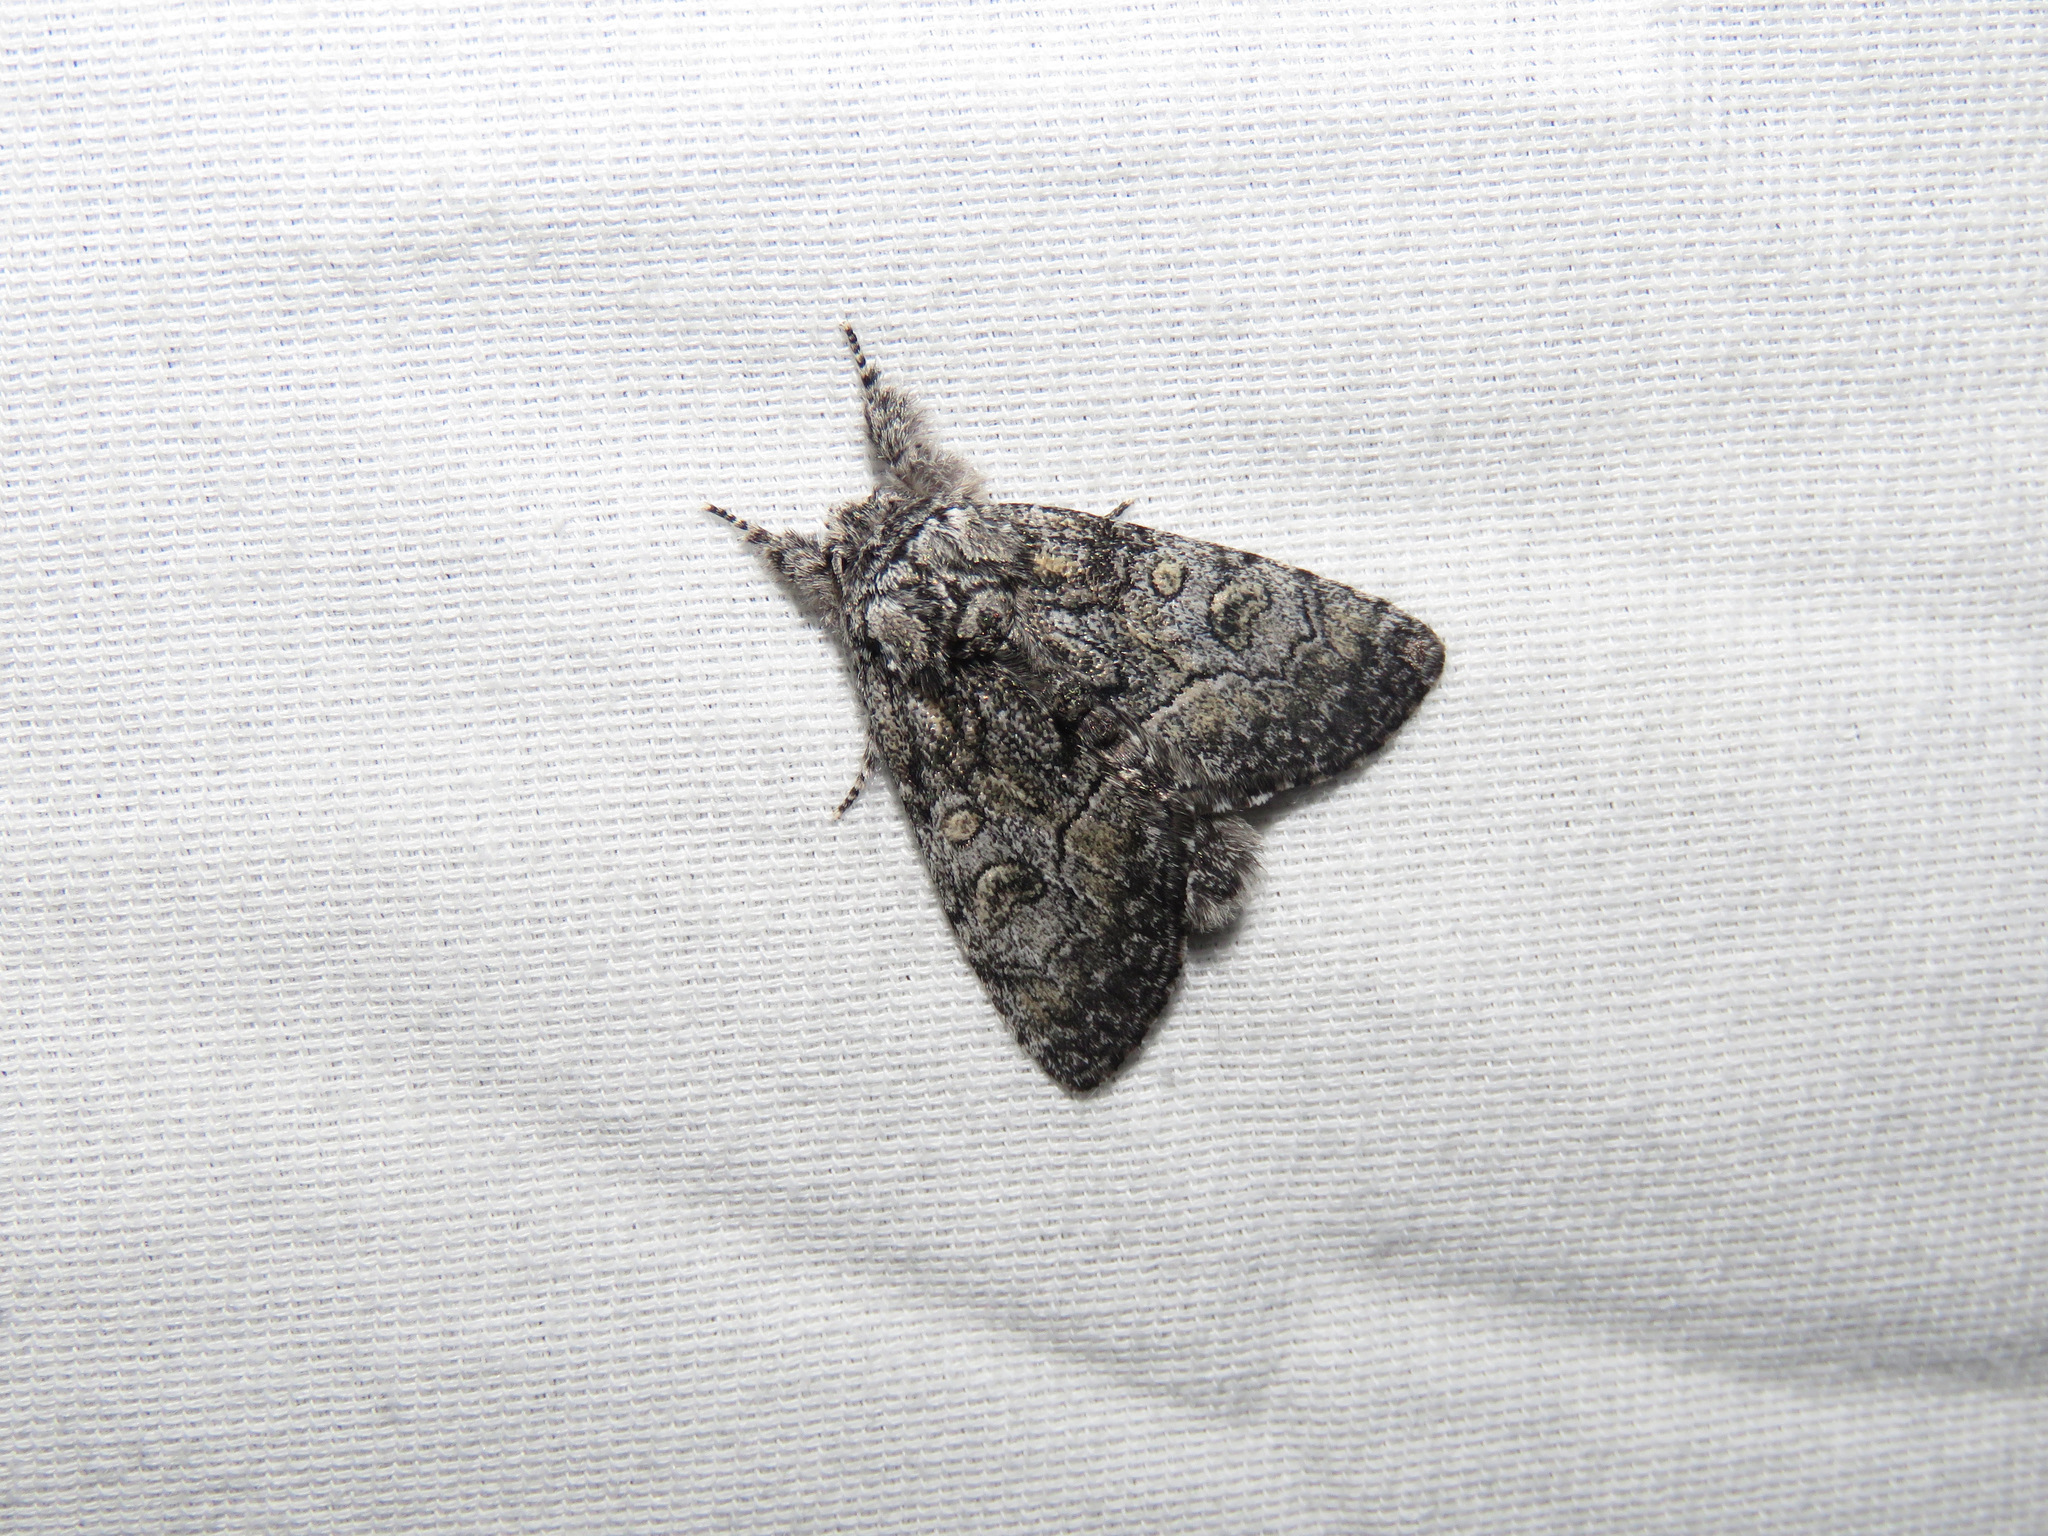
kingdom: Animalia
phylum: Arthropoda
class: Insecta
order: Lepidoptera
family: Noctuidae
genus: Raphia
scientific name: Raphia frater
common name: Brother
